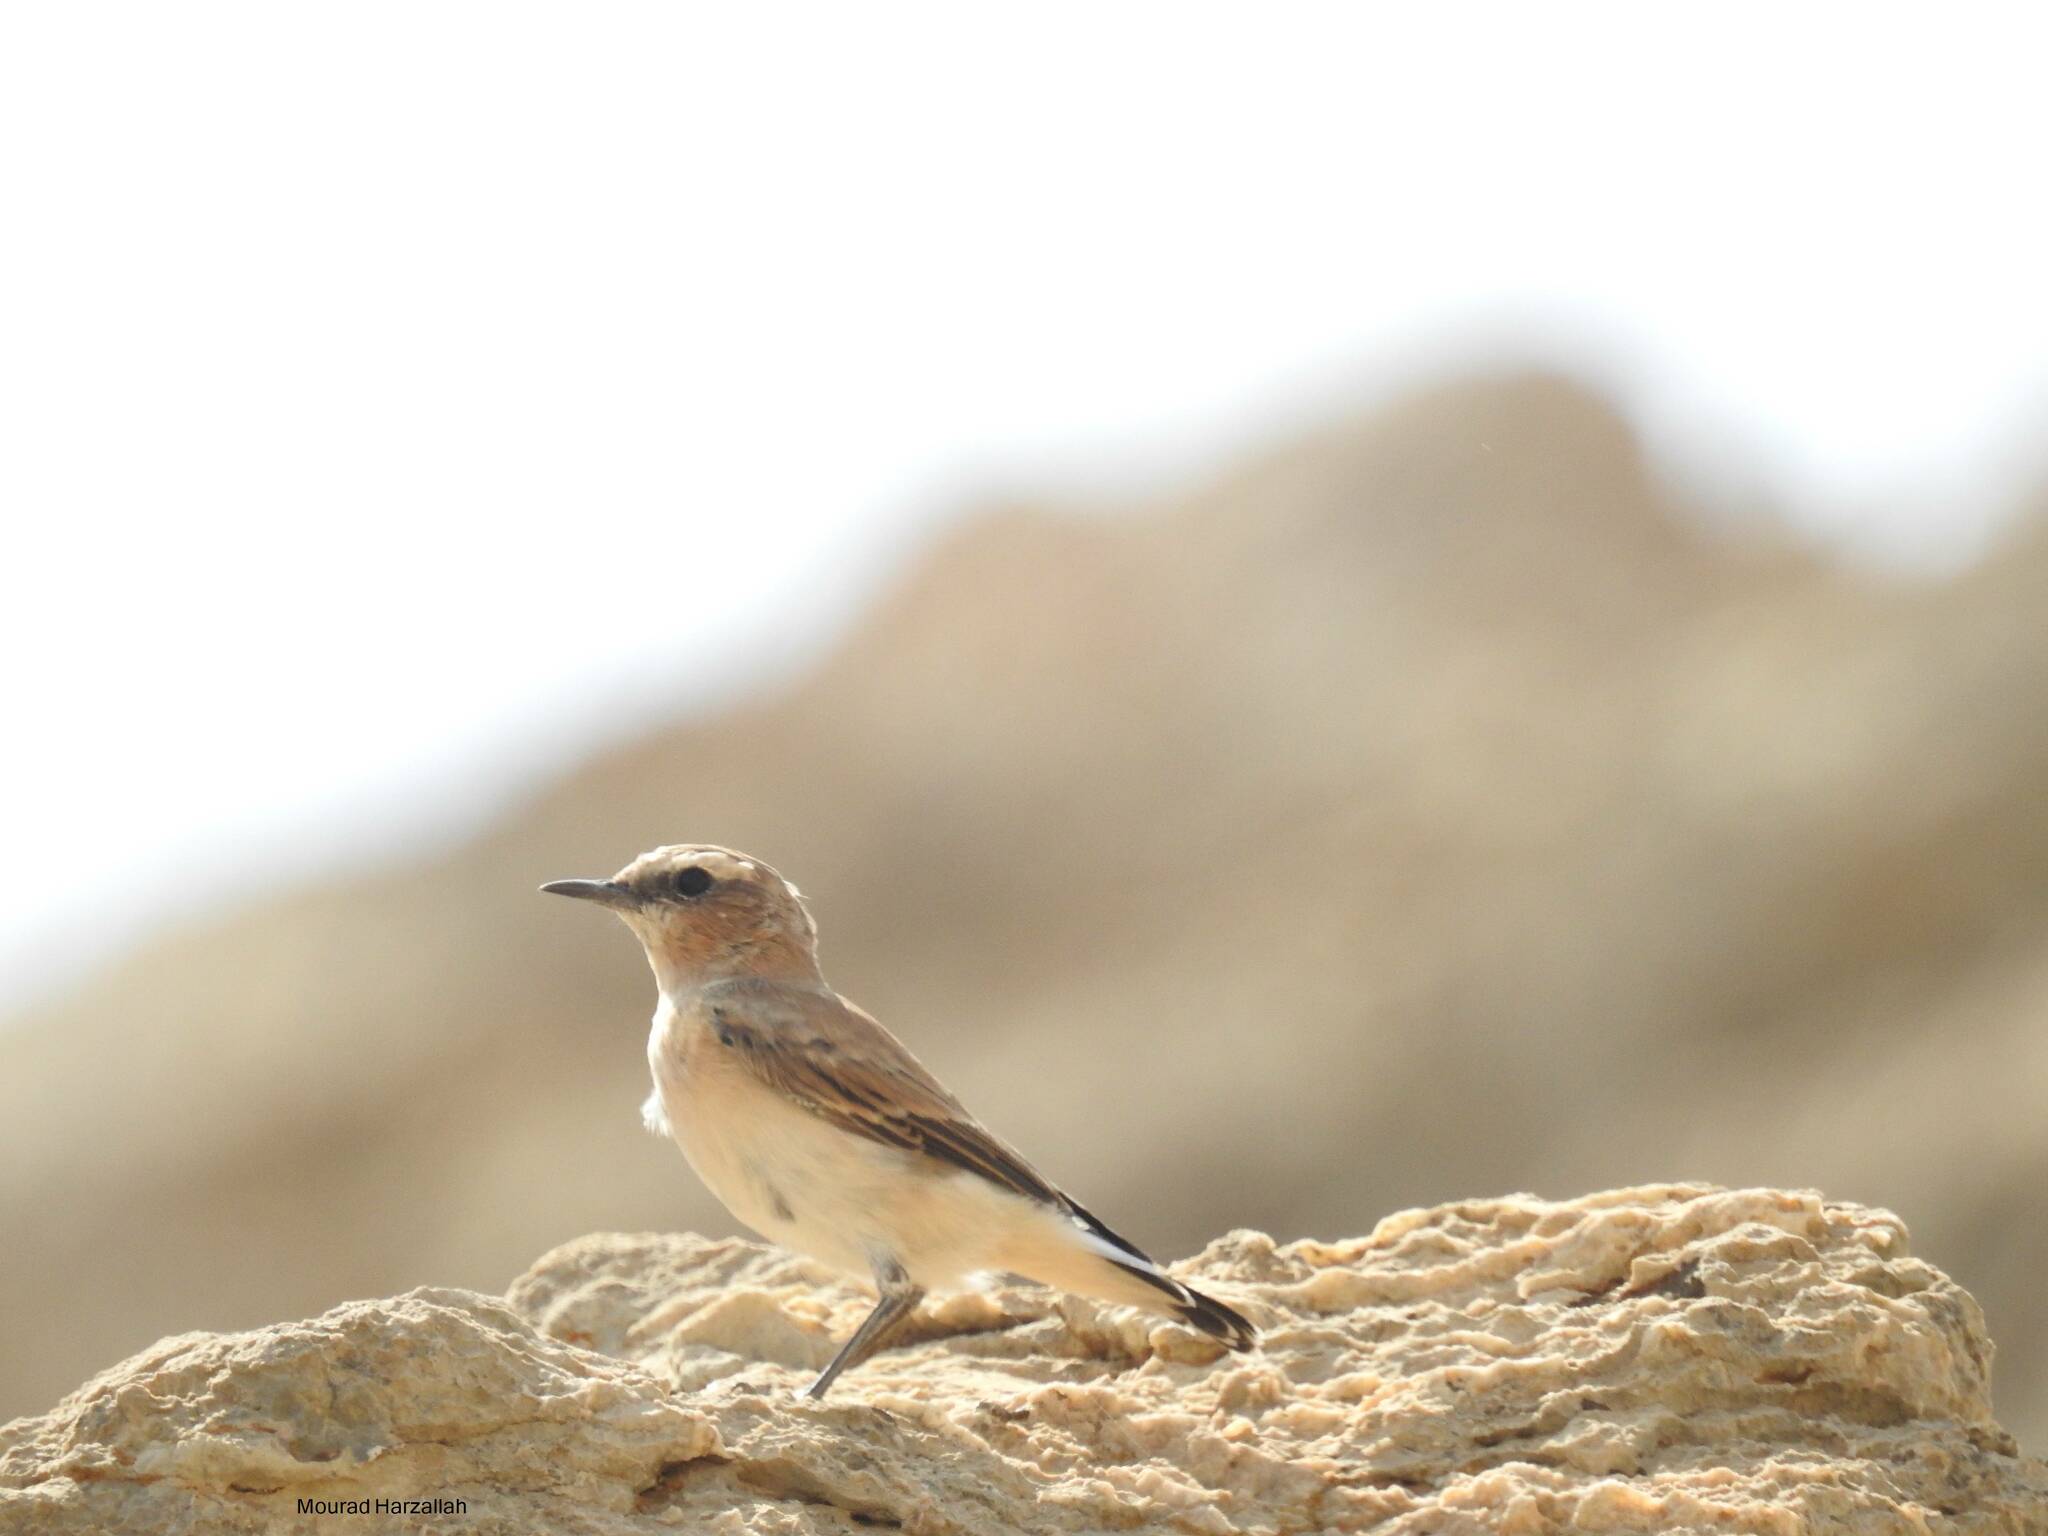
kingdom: Animalia
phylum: Chordata
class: Aves
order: Passeriformes
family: Muscicapidae
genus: Oenanthe
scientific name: Oenanthe oenanthe
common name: Northern wheatear
